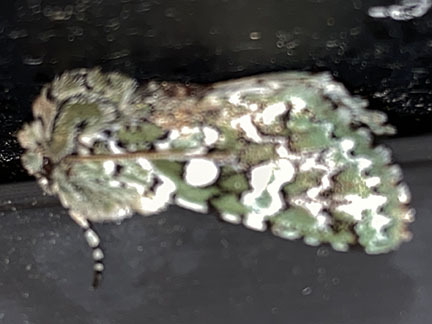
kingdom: Animalia
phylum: Arthropoda
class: Insecta
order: Lepidoptera
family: Noctuidae
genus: Feralia
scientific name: Feralia februalis
